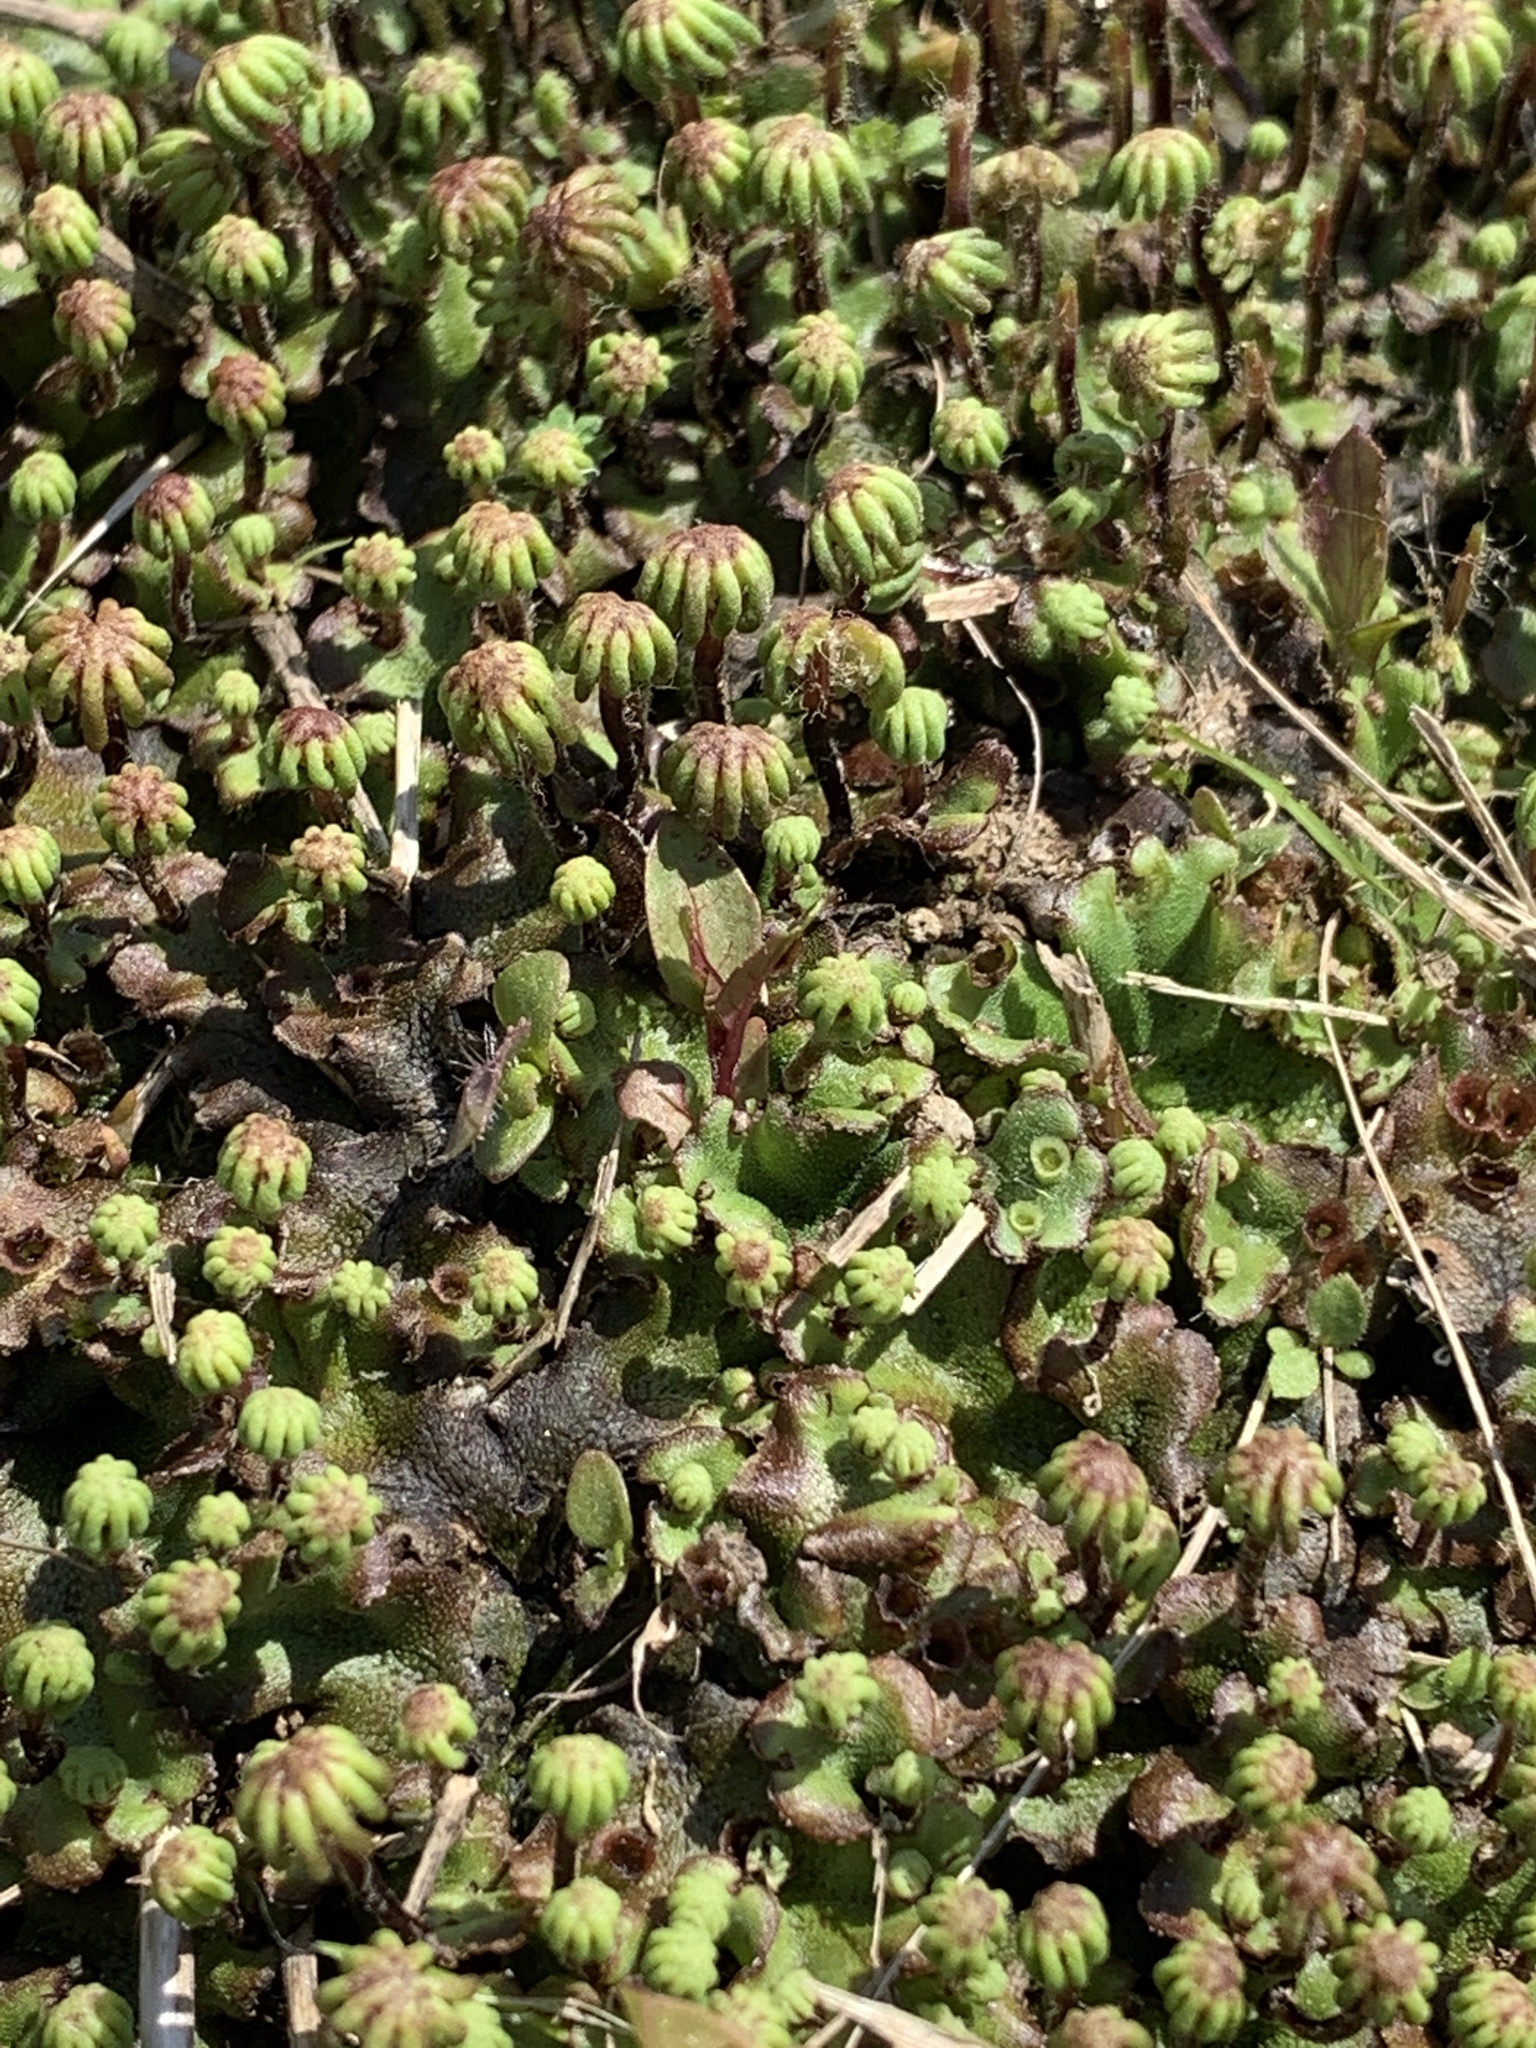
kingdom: Plantae
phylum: Marchantiophyta
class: Marchantiopsida
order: Marchantiales
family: Marchantiaceae
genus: Marchantia
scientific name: Marchantia polymorpha
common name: Common liverwort
